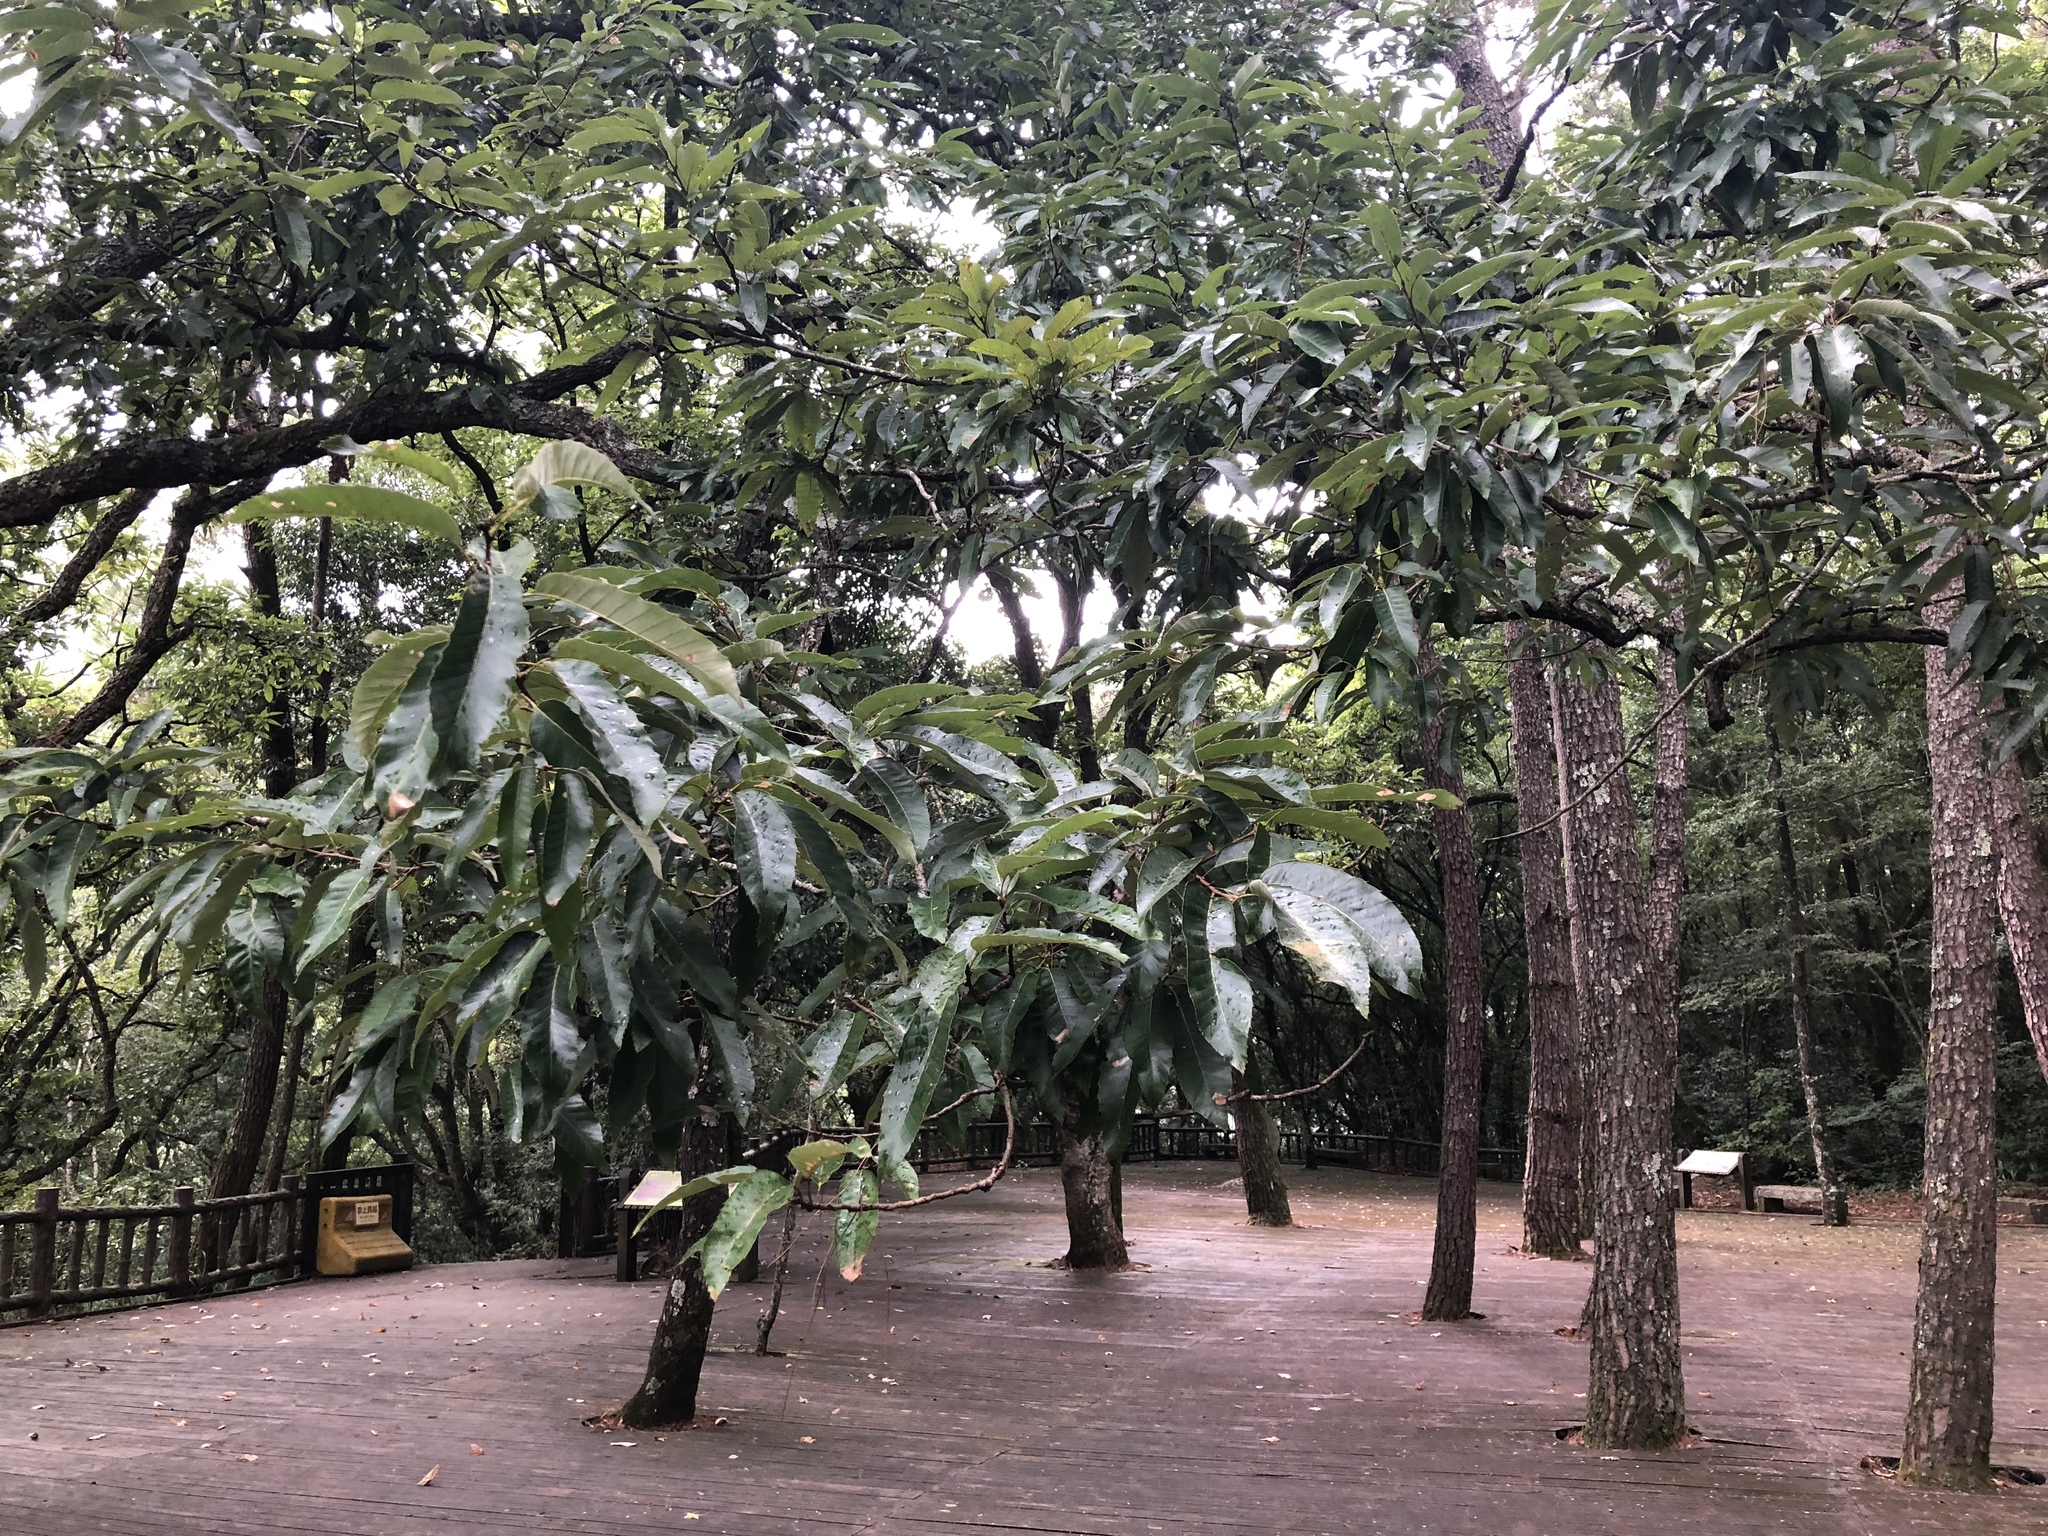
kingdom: Plantae
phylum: Tracheophyta
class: Magnoliopsida
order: Fagales
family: Fagaceae
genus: Quercus
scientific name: Quercus variabilis
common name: Chinese cork oak
